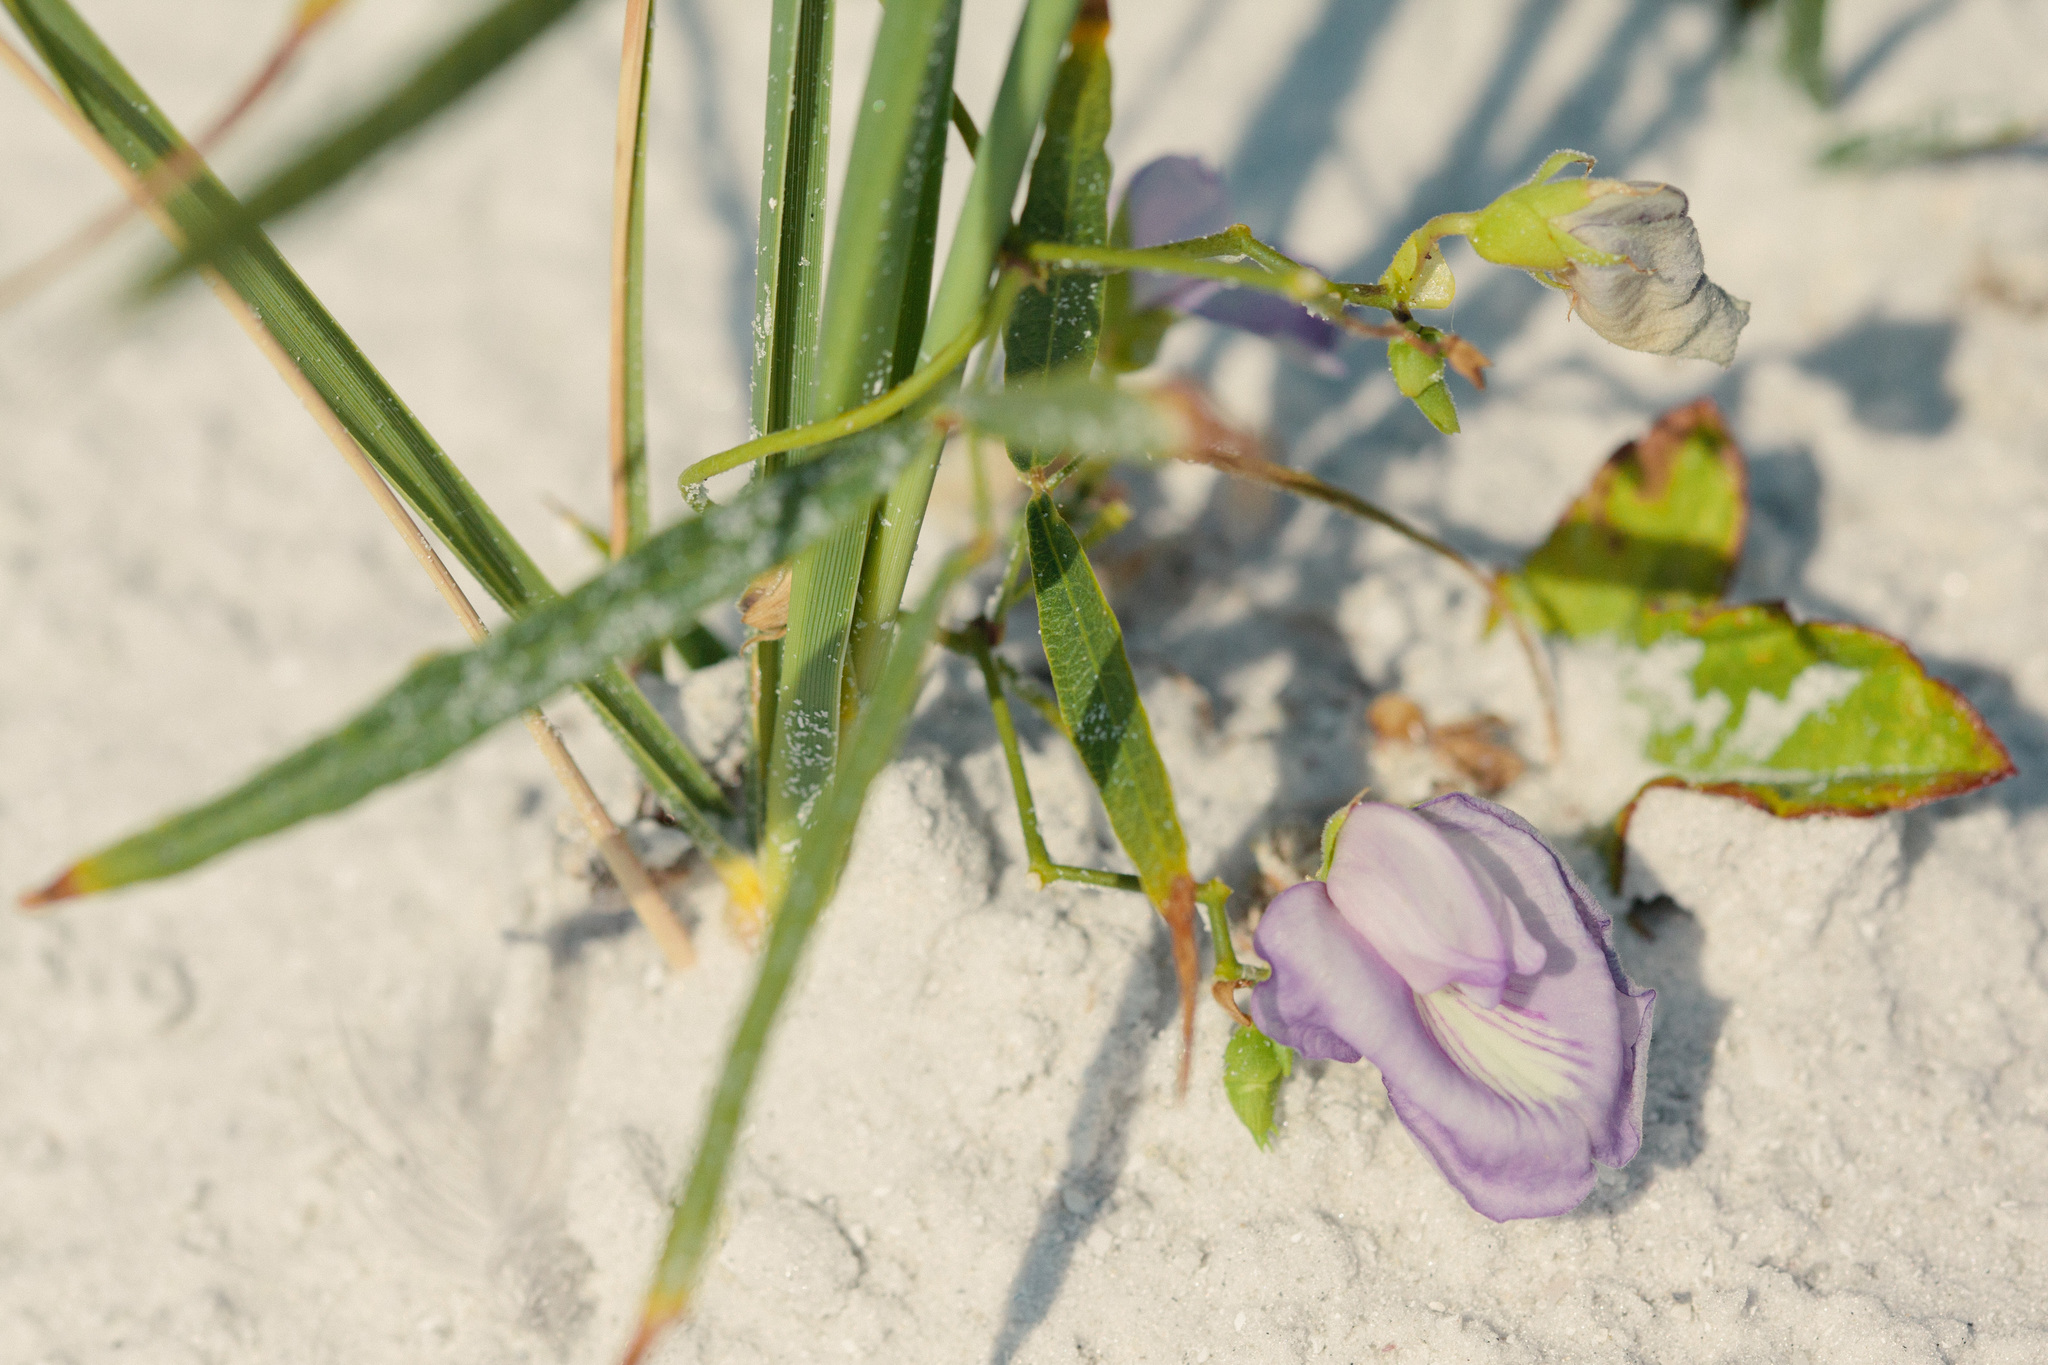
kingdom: Plantae
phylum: Tracheophyta
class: Magnoliopsida
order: Fabales
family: Fabaceae
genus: Centrosema
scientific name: Centrosema virginianum
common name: Butterfly-pea
